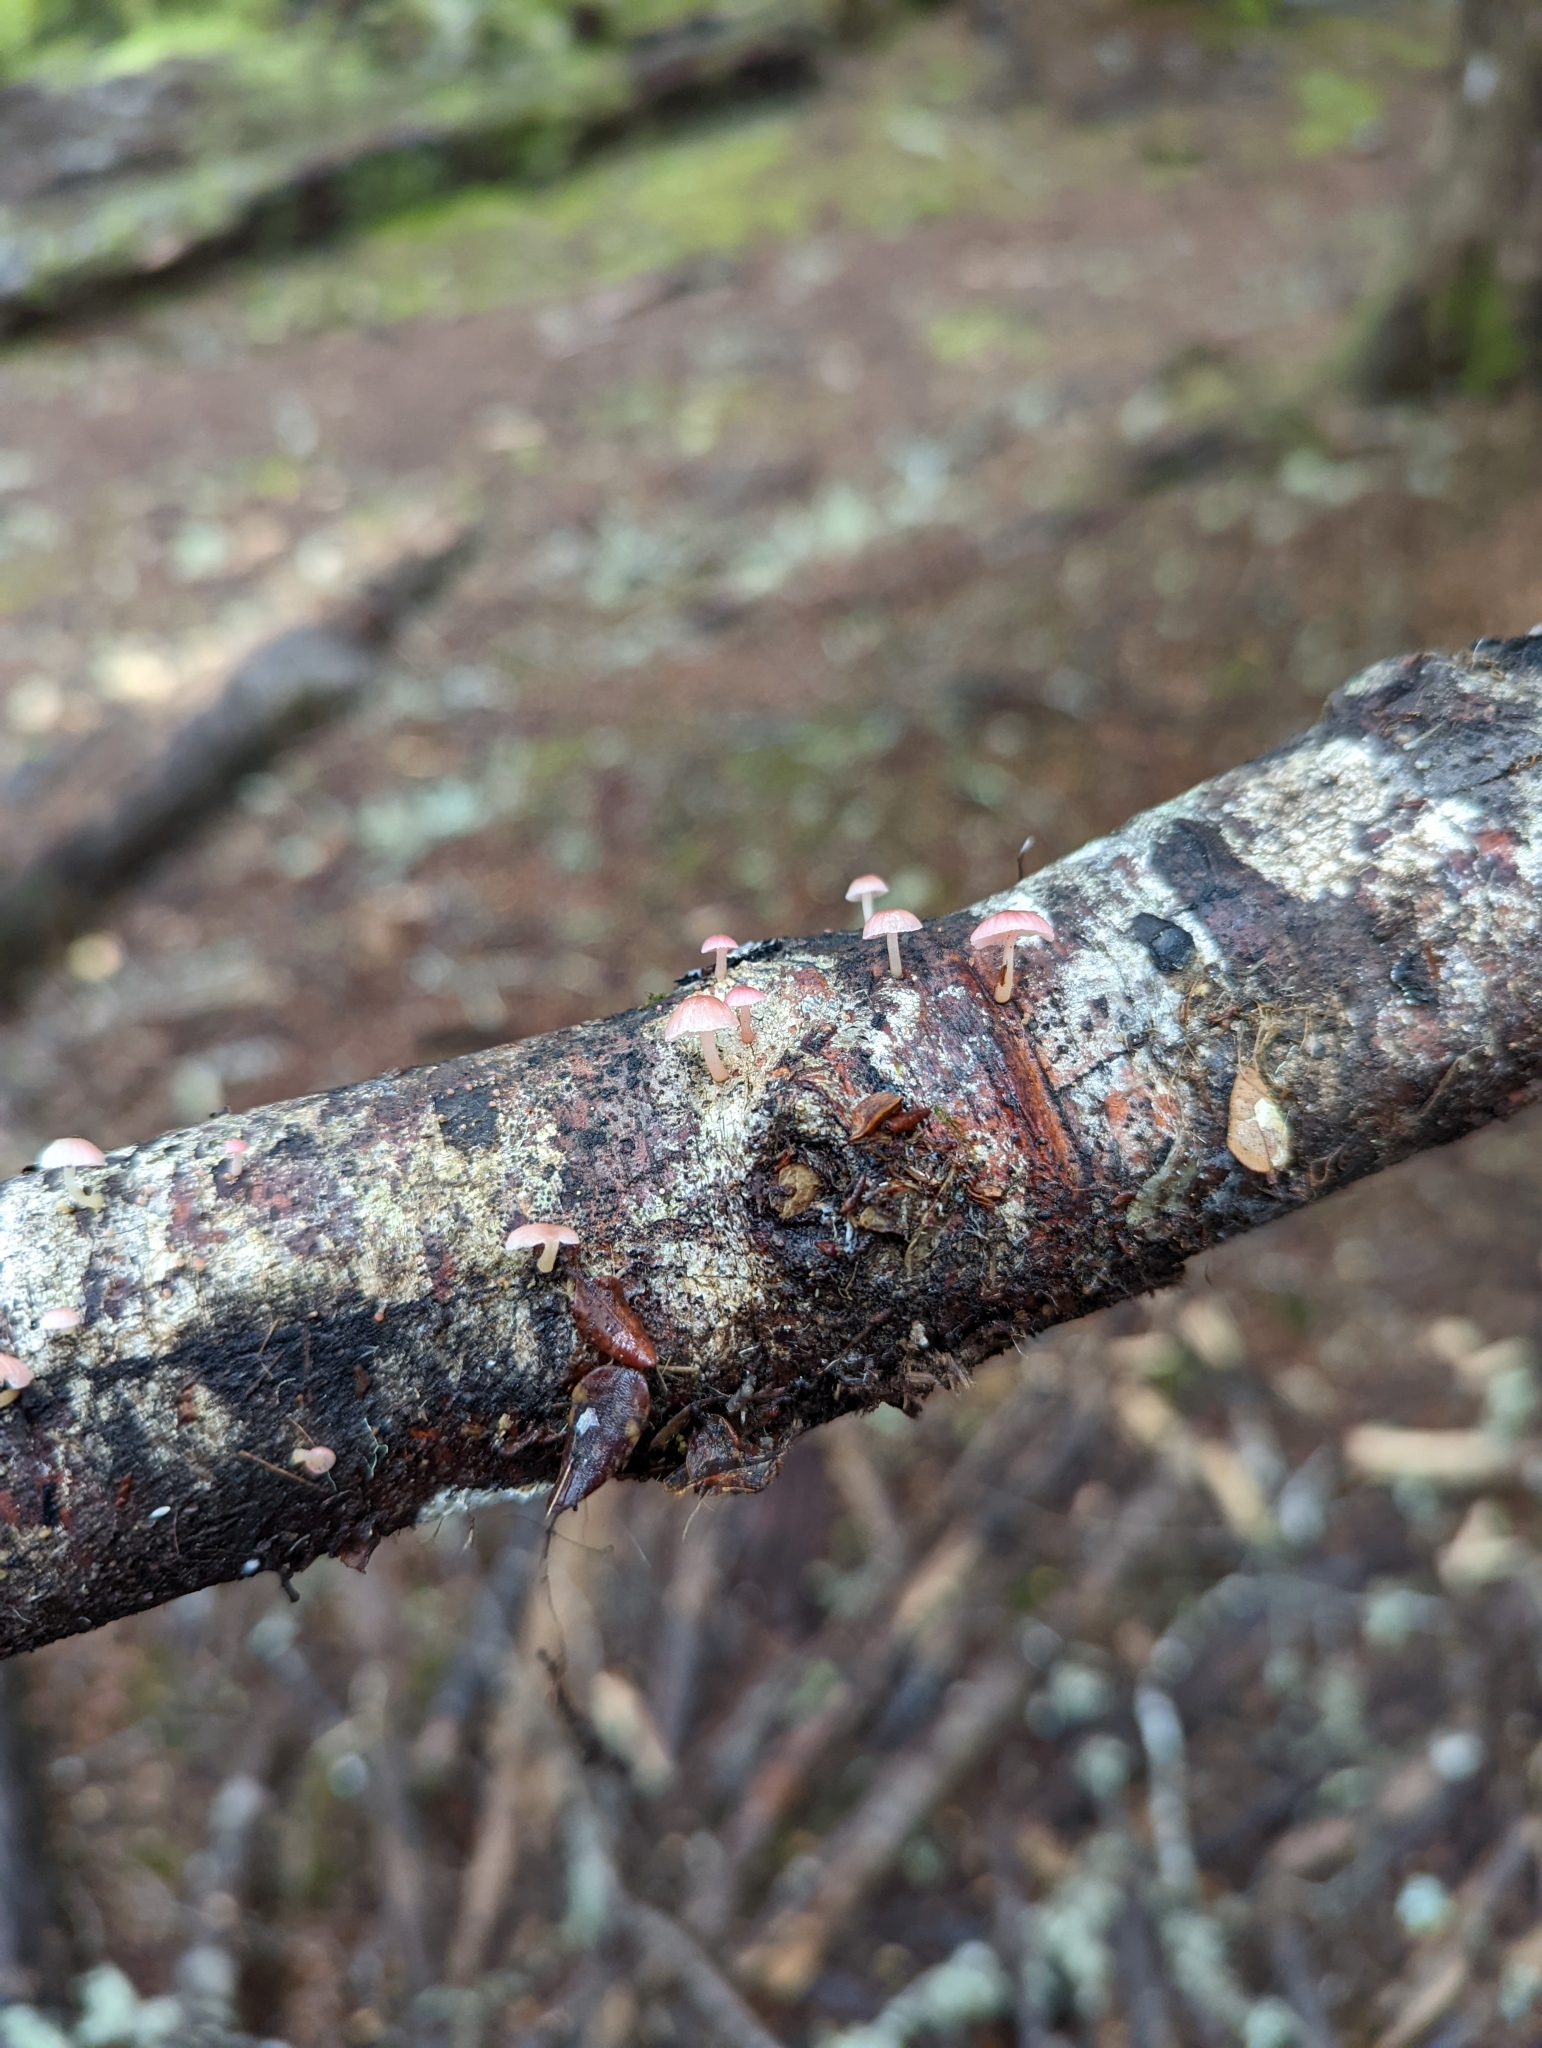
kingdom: Fungi
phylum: Basidiomycota
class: Agaricomycetes
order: Agaricales
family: Mycenaceae
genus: Mycena
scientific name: Mycena roseoflava
